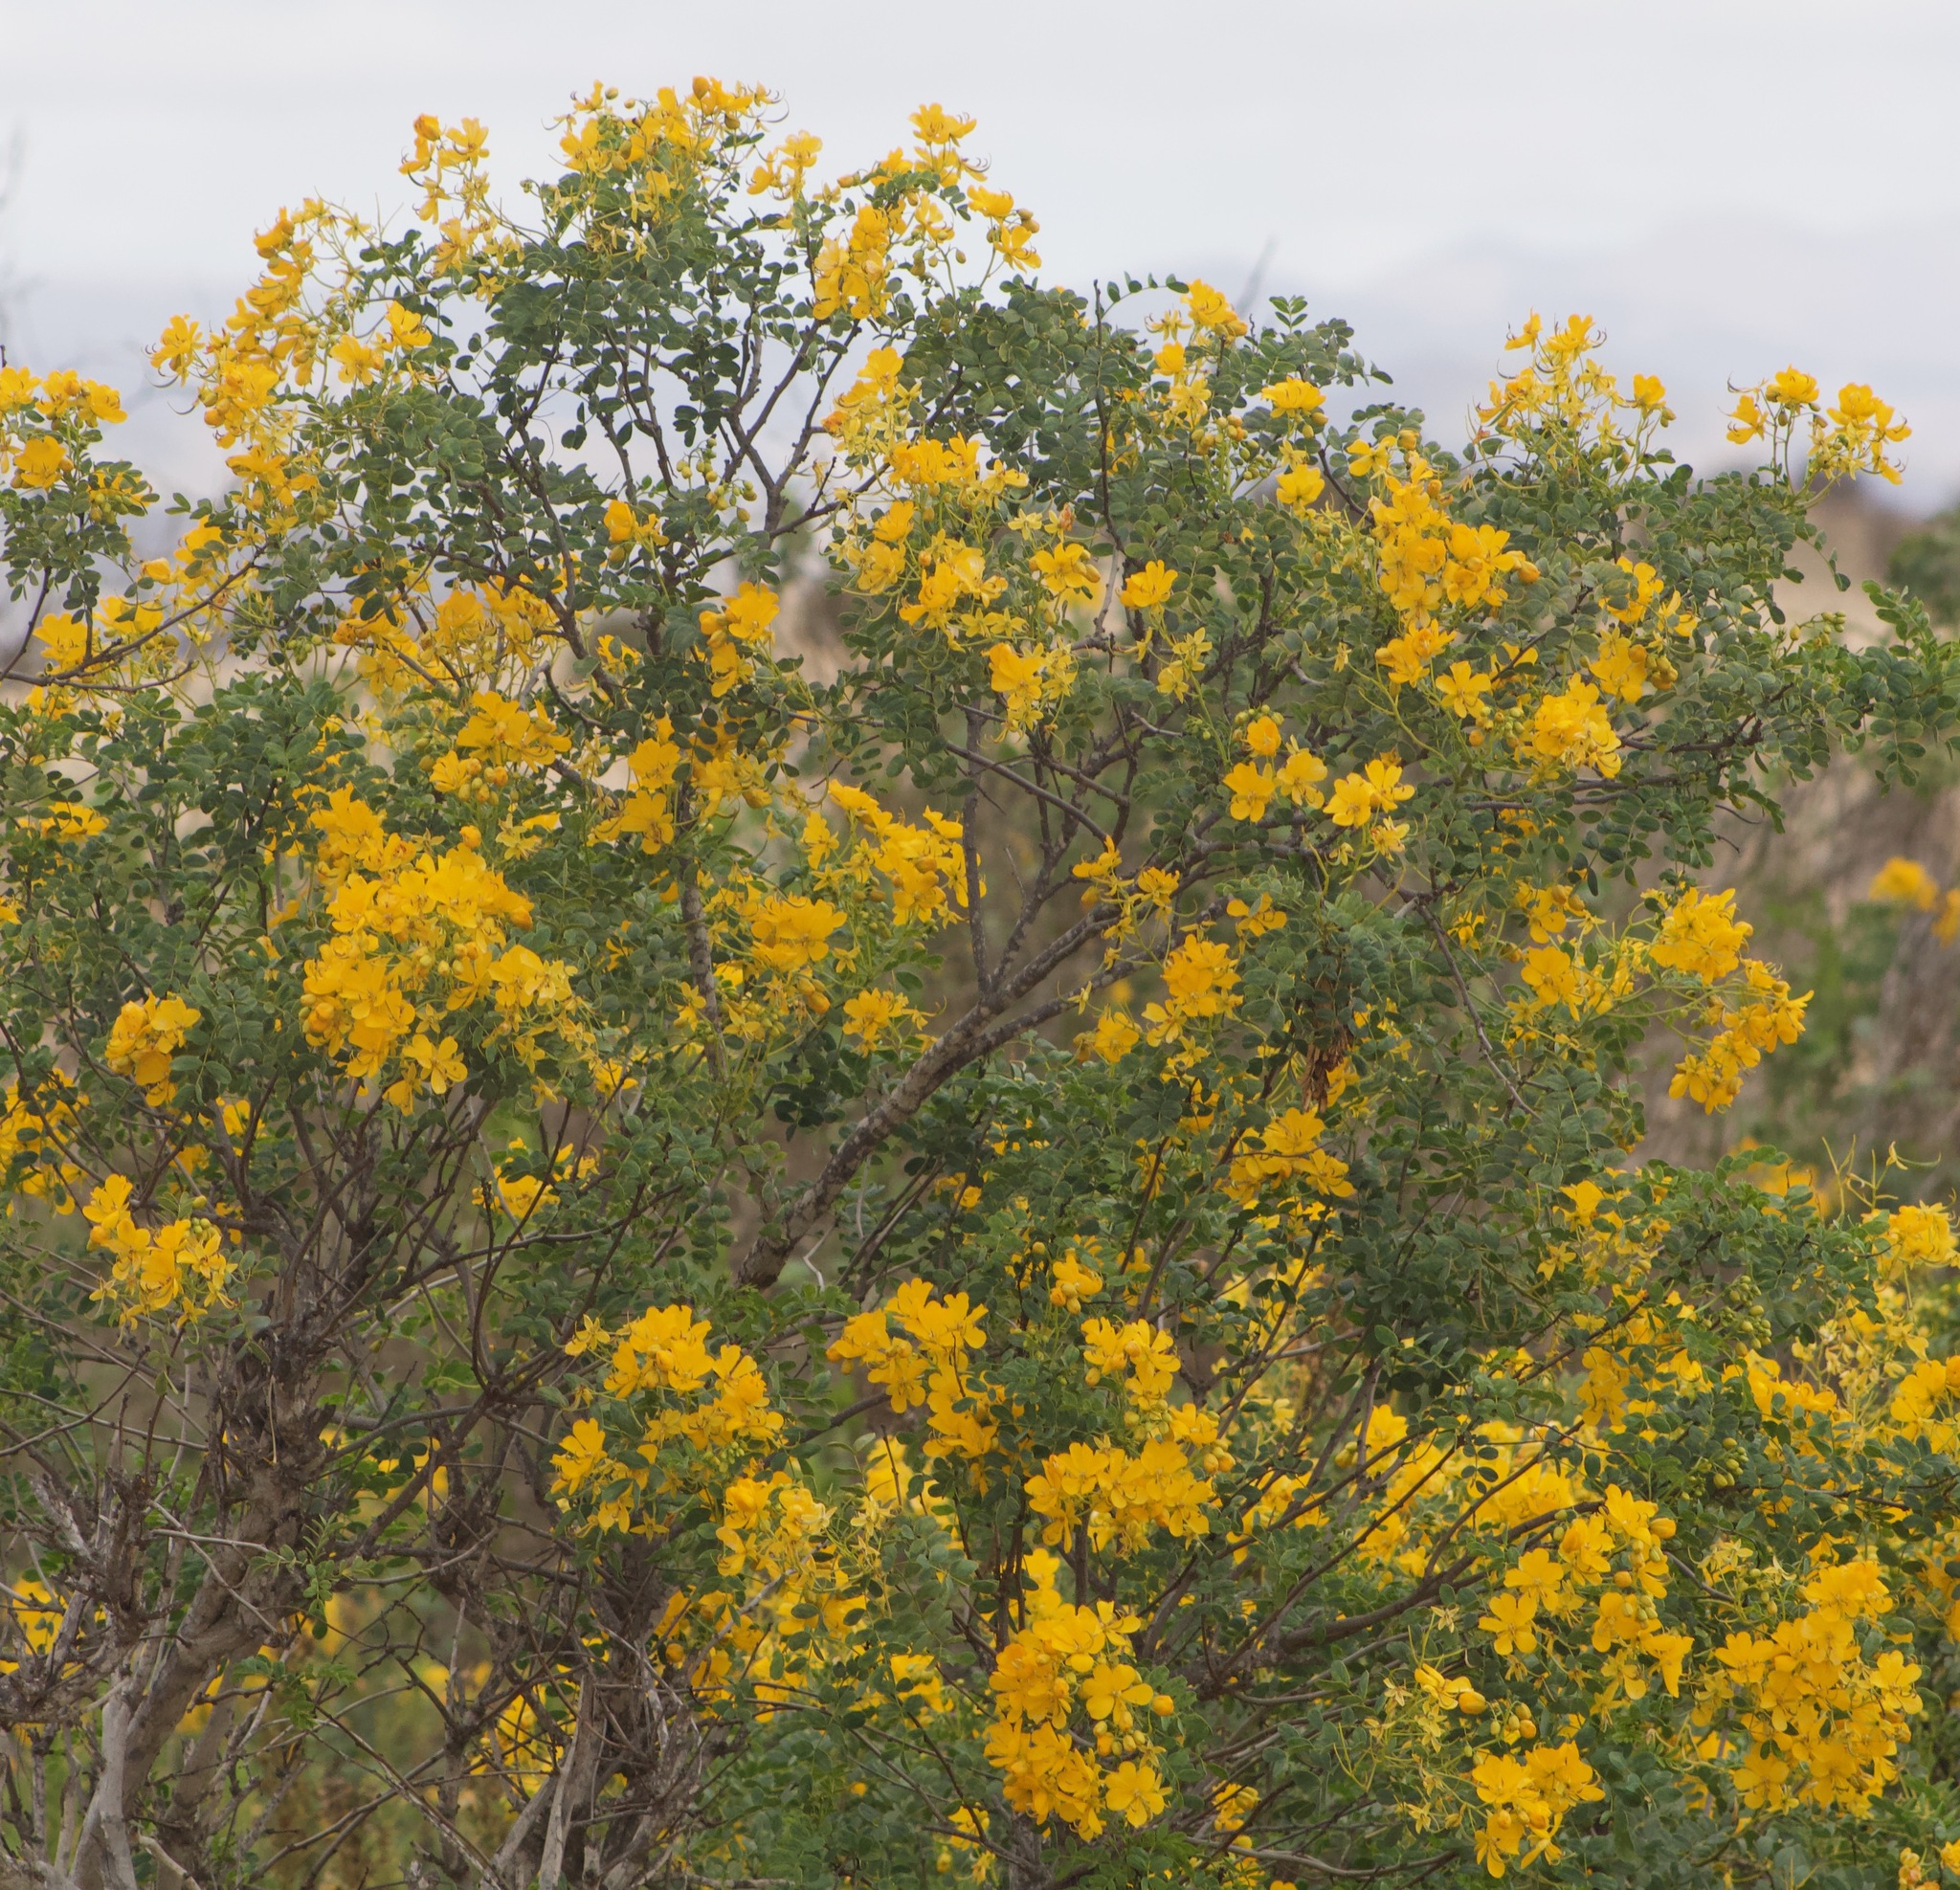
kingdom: Plantae
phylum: Tracheophyta
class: Magnoliopsida
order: Fabales
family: Fabaceae
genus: Senna
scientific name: Senna cumingii
